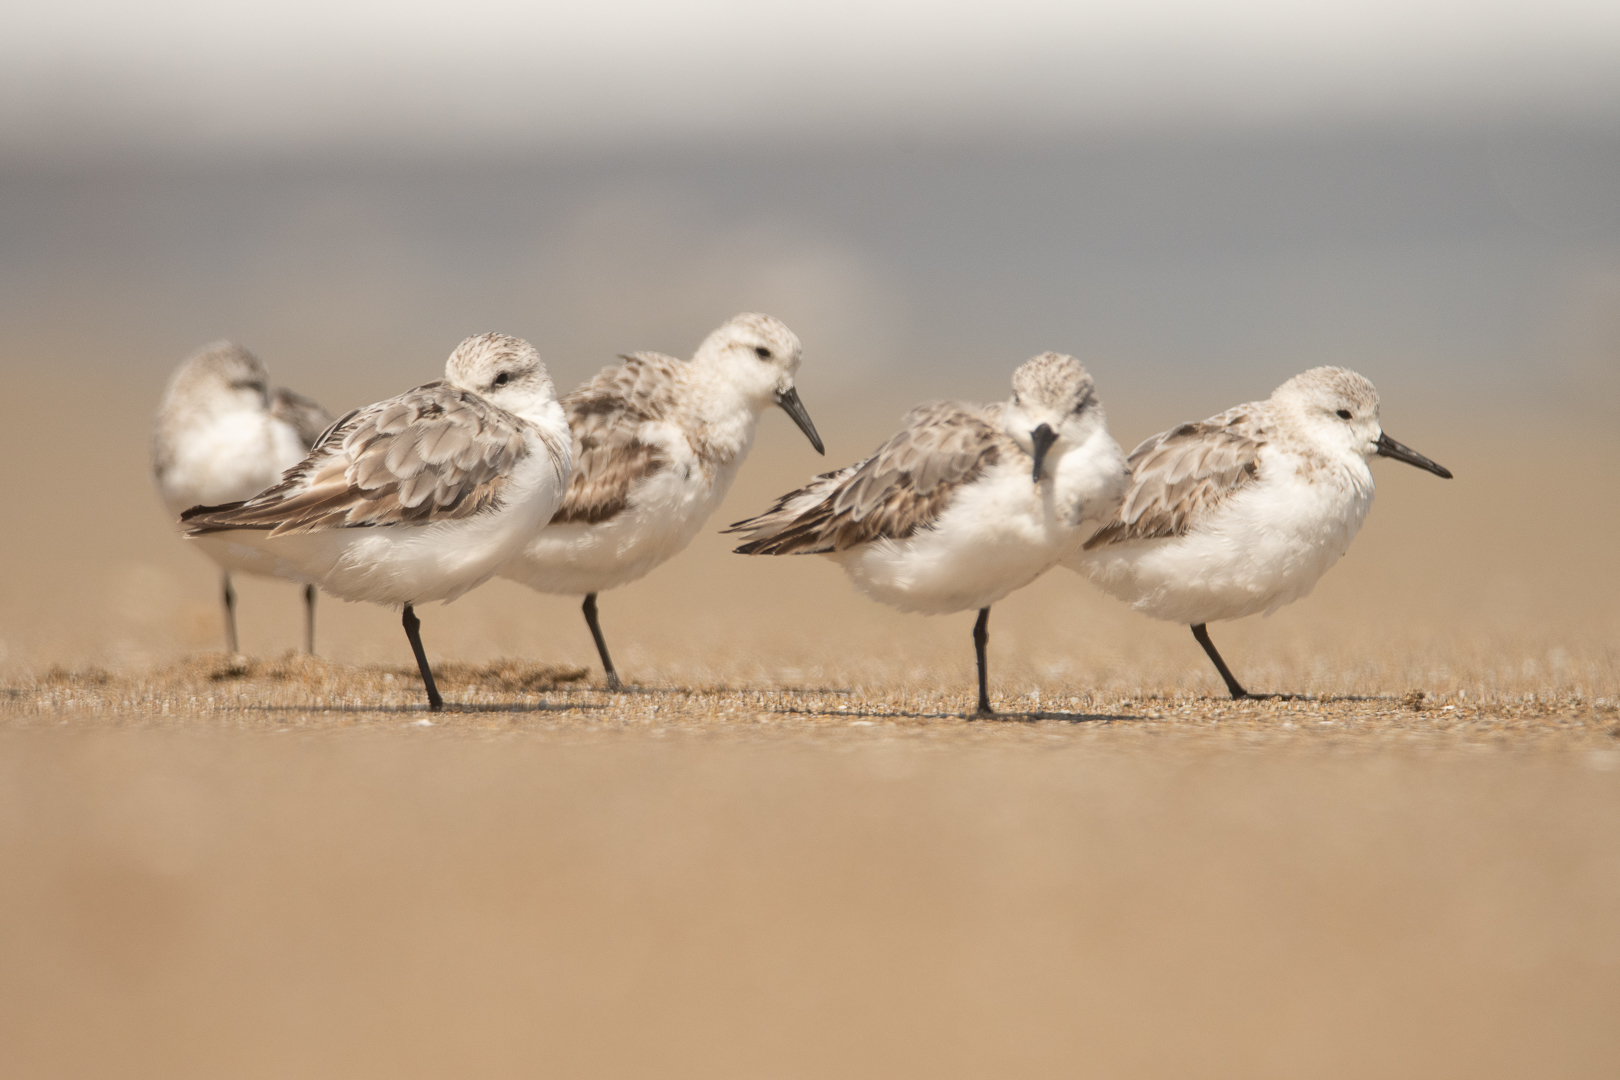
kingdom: Animalia
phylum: Chordata
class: Aves
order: Charadriiformes
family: Scolopacidae
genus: Calidris
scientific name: Calidris alba
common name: Sanderling
